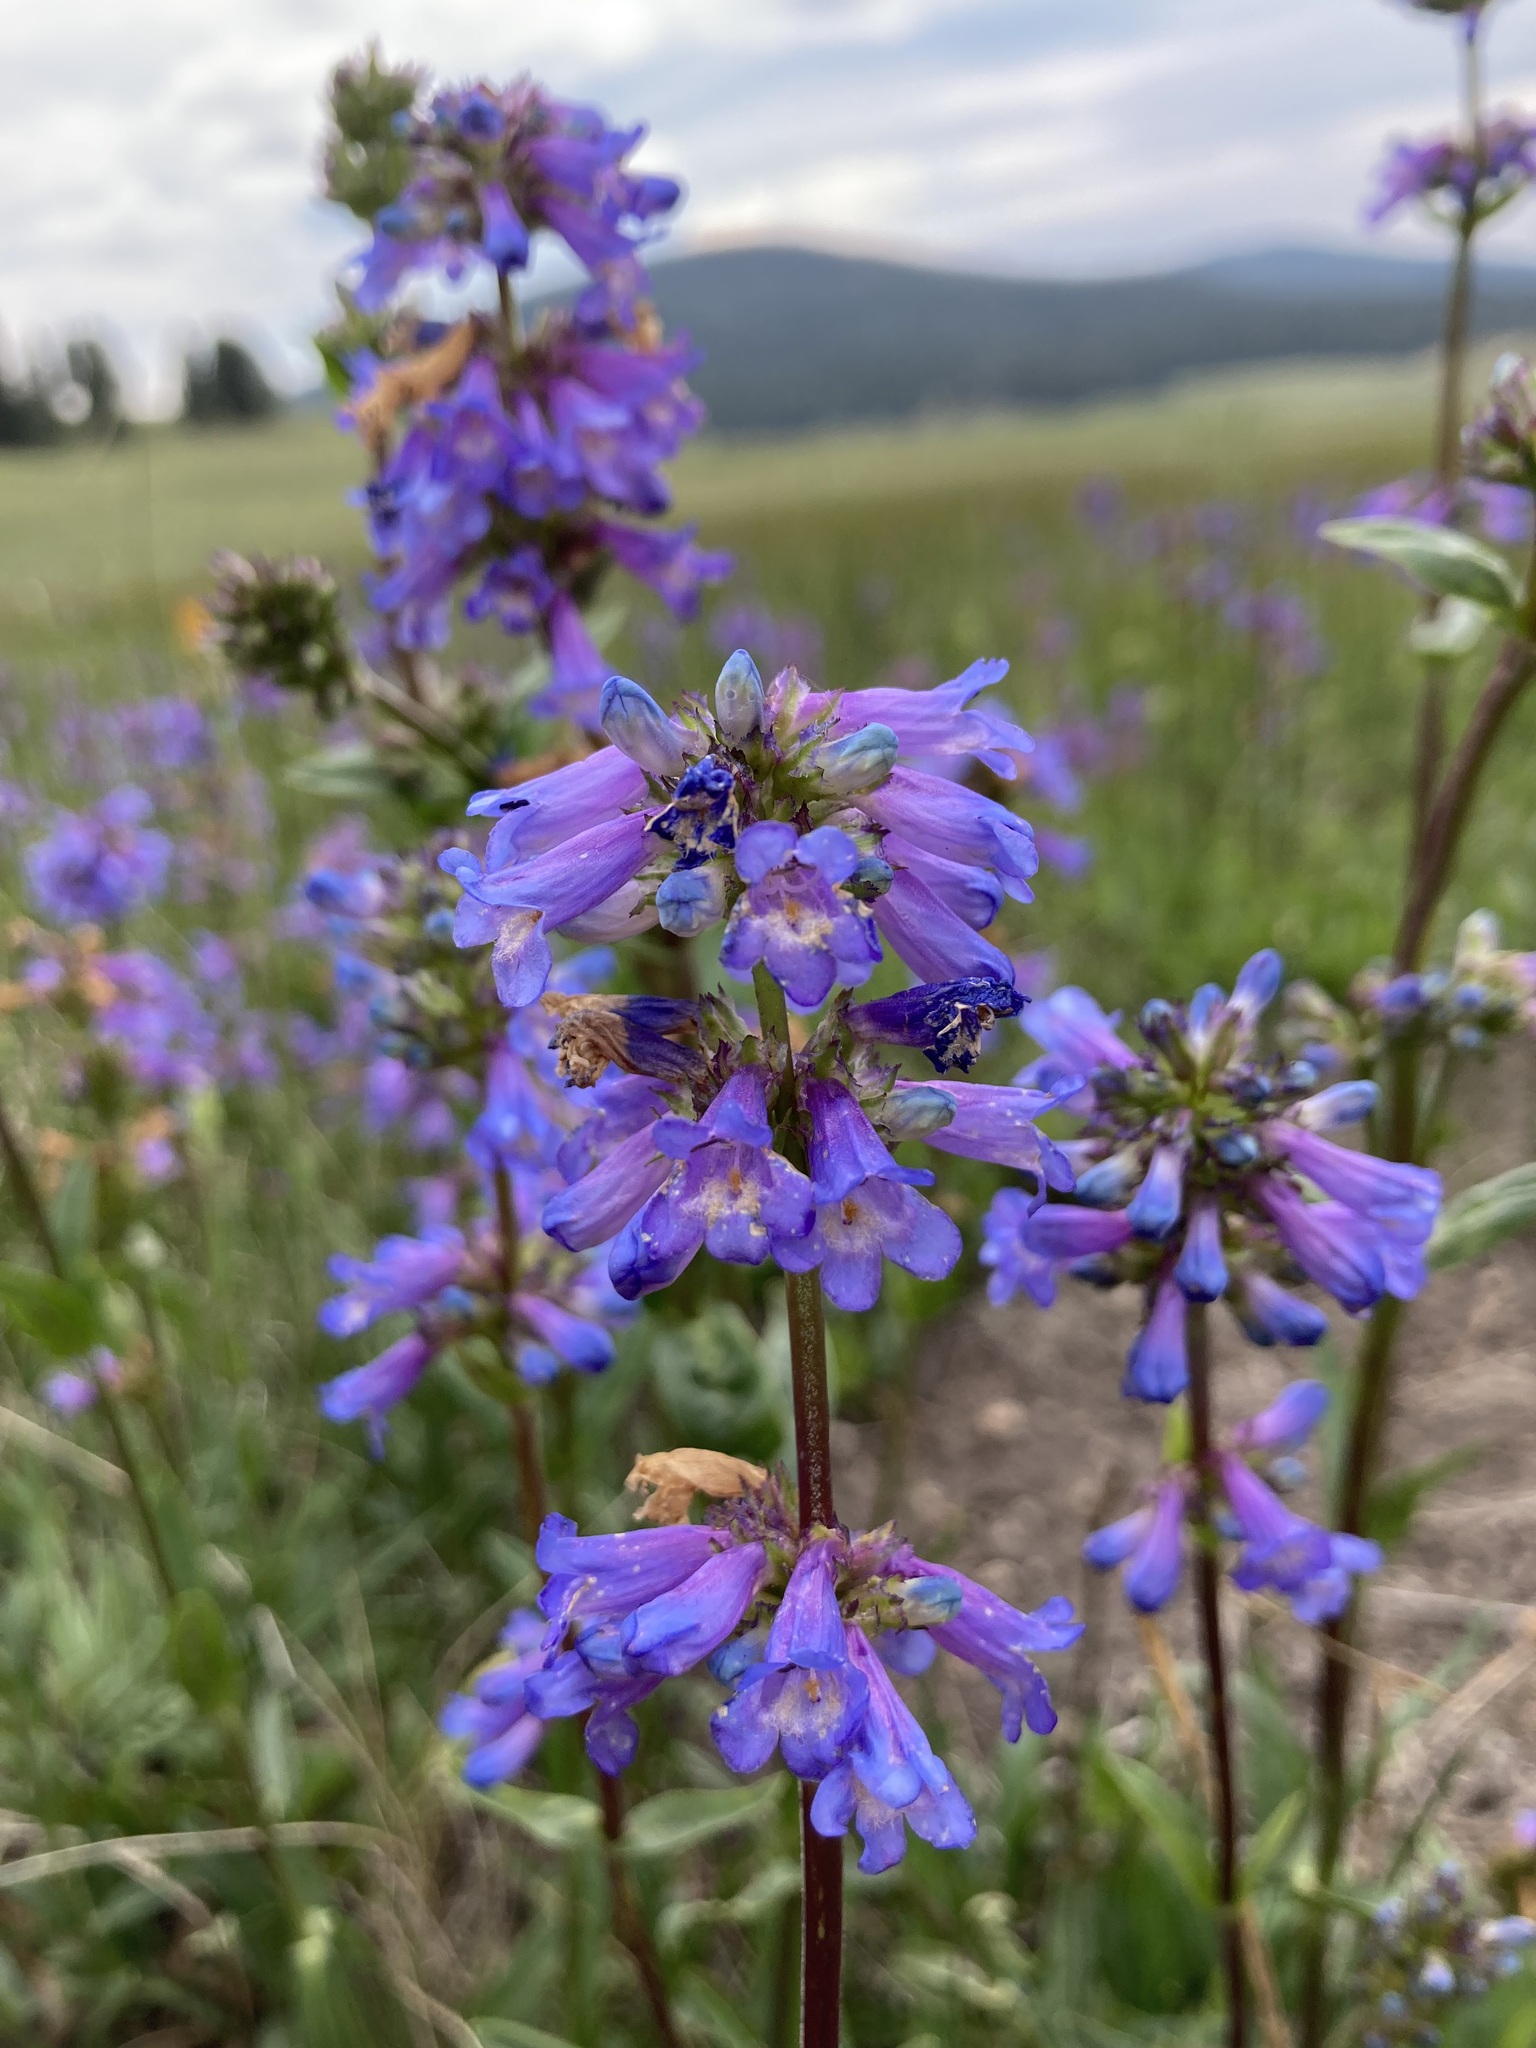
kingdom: Plantae
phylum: Tracheophyta
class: Magnoliopsida
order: Lamiales
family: Plantaginaceae
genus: Penstemon
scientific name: Penstemon rydbergii
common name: Rydberg's beardtongue
